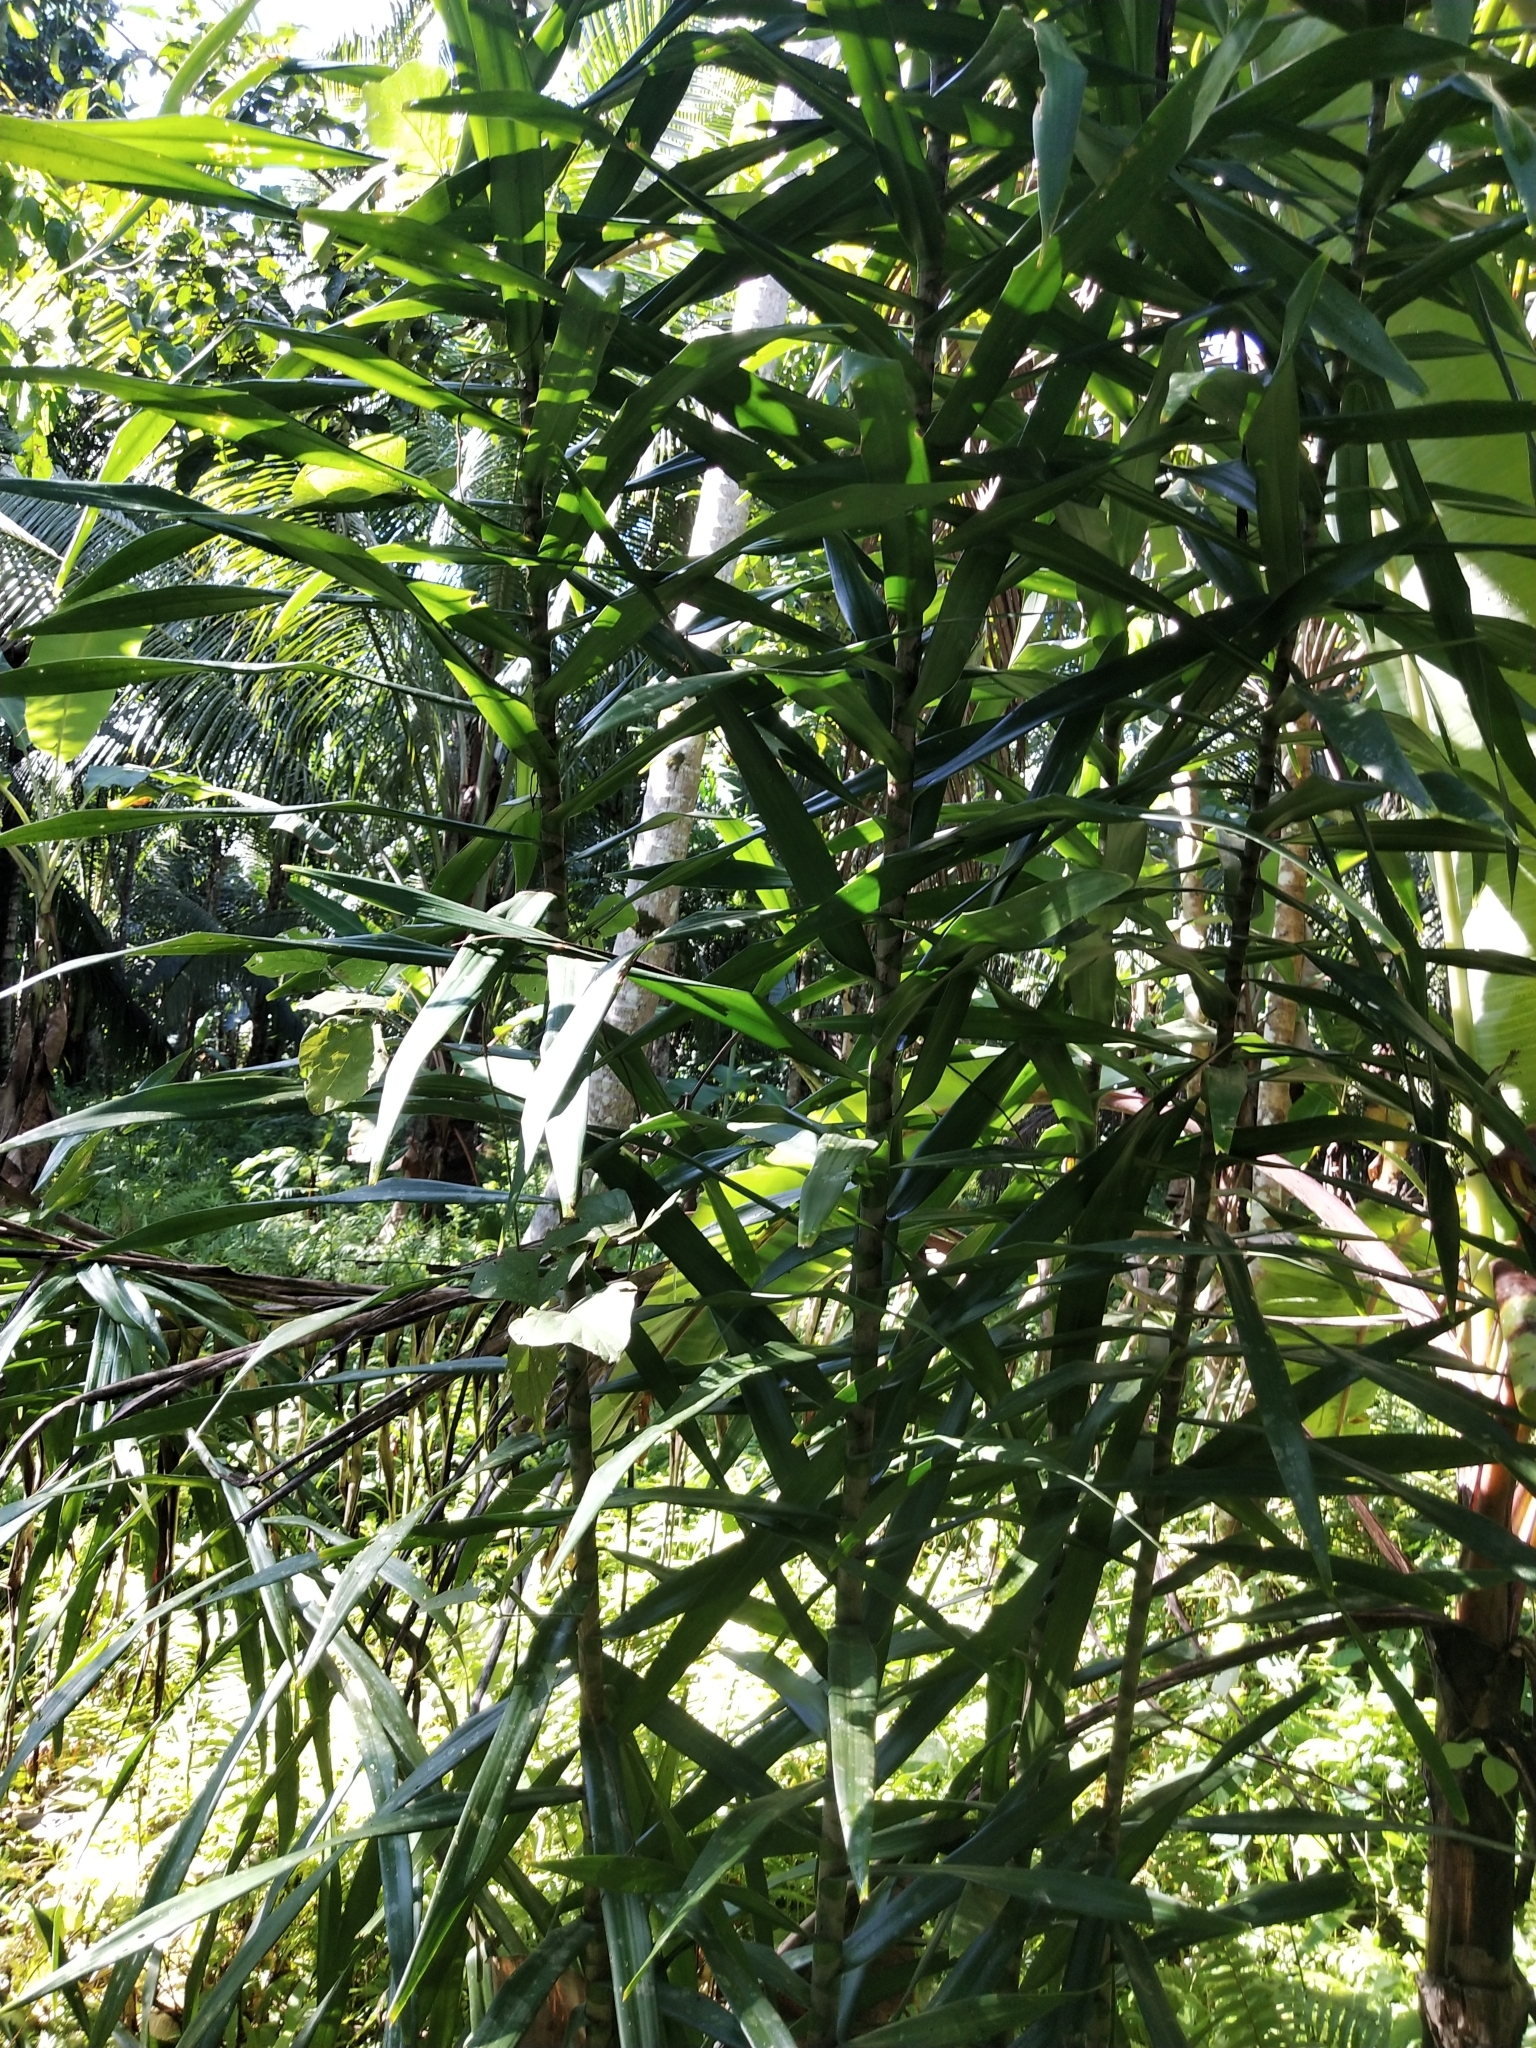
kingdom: Plantae
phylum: Tracheophyta
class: Liliopsida
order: Asparagales
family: Asparagaceae
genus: Dracaena
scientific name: Dracaena angustifolia
